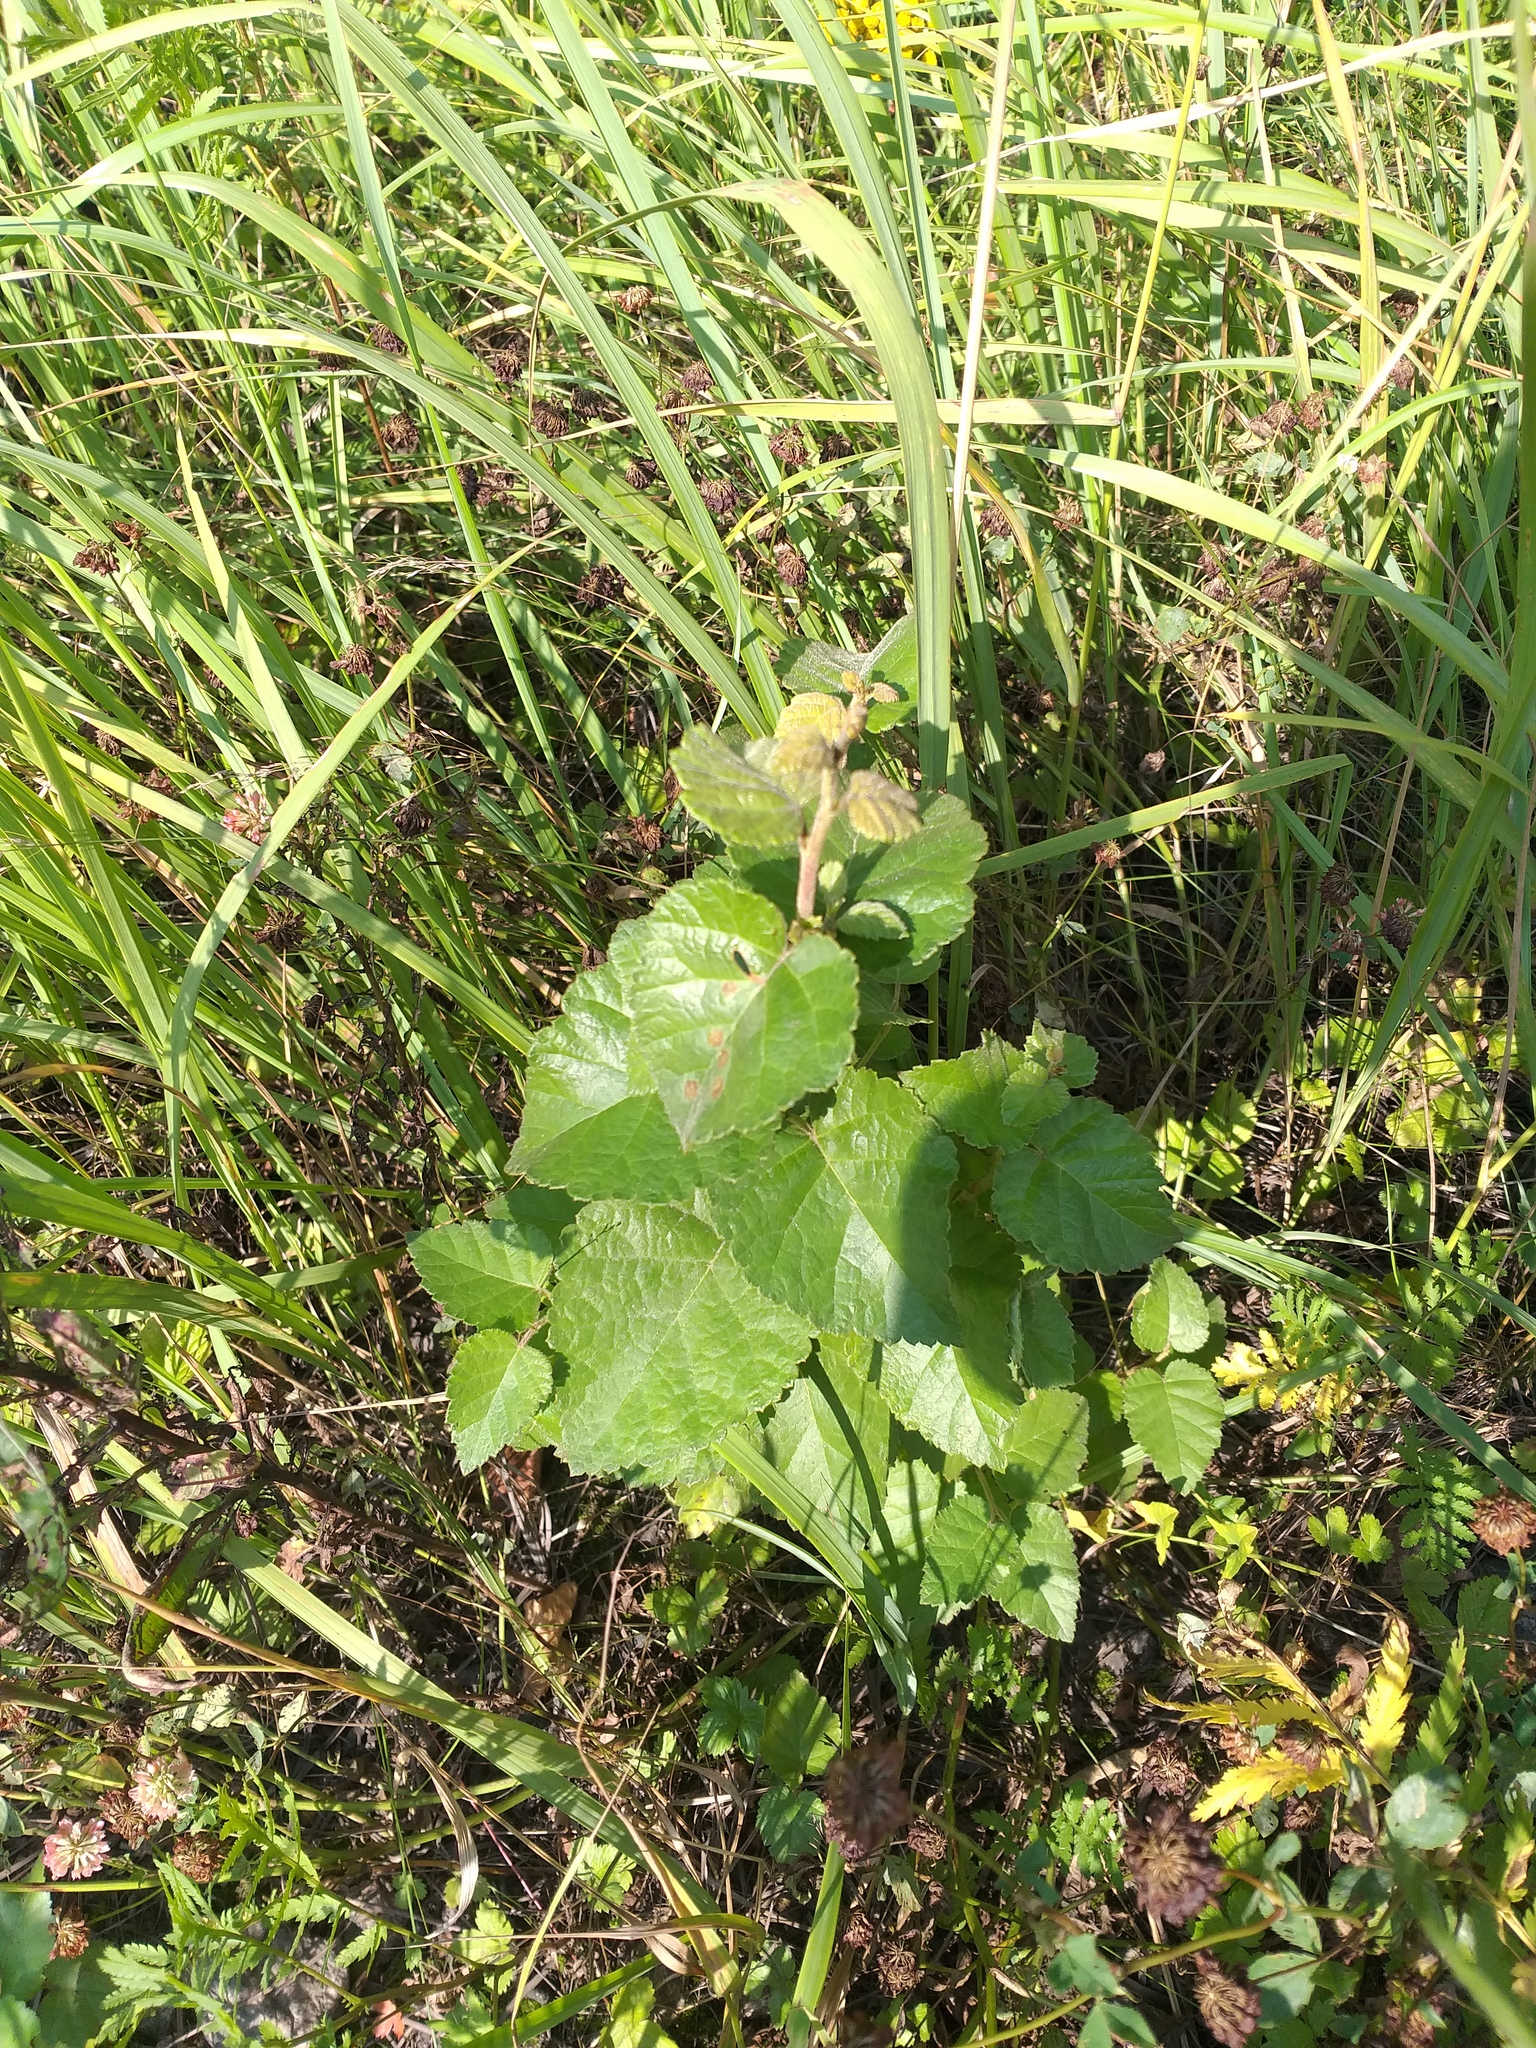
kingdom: Plantae
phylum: Tracheophyta
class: Magnoliopsida
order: Fagales
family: Betulaceae
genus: Betula
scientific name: Betula pubescens
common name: Downy birch
